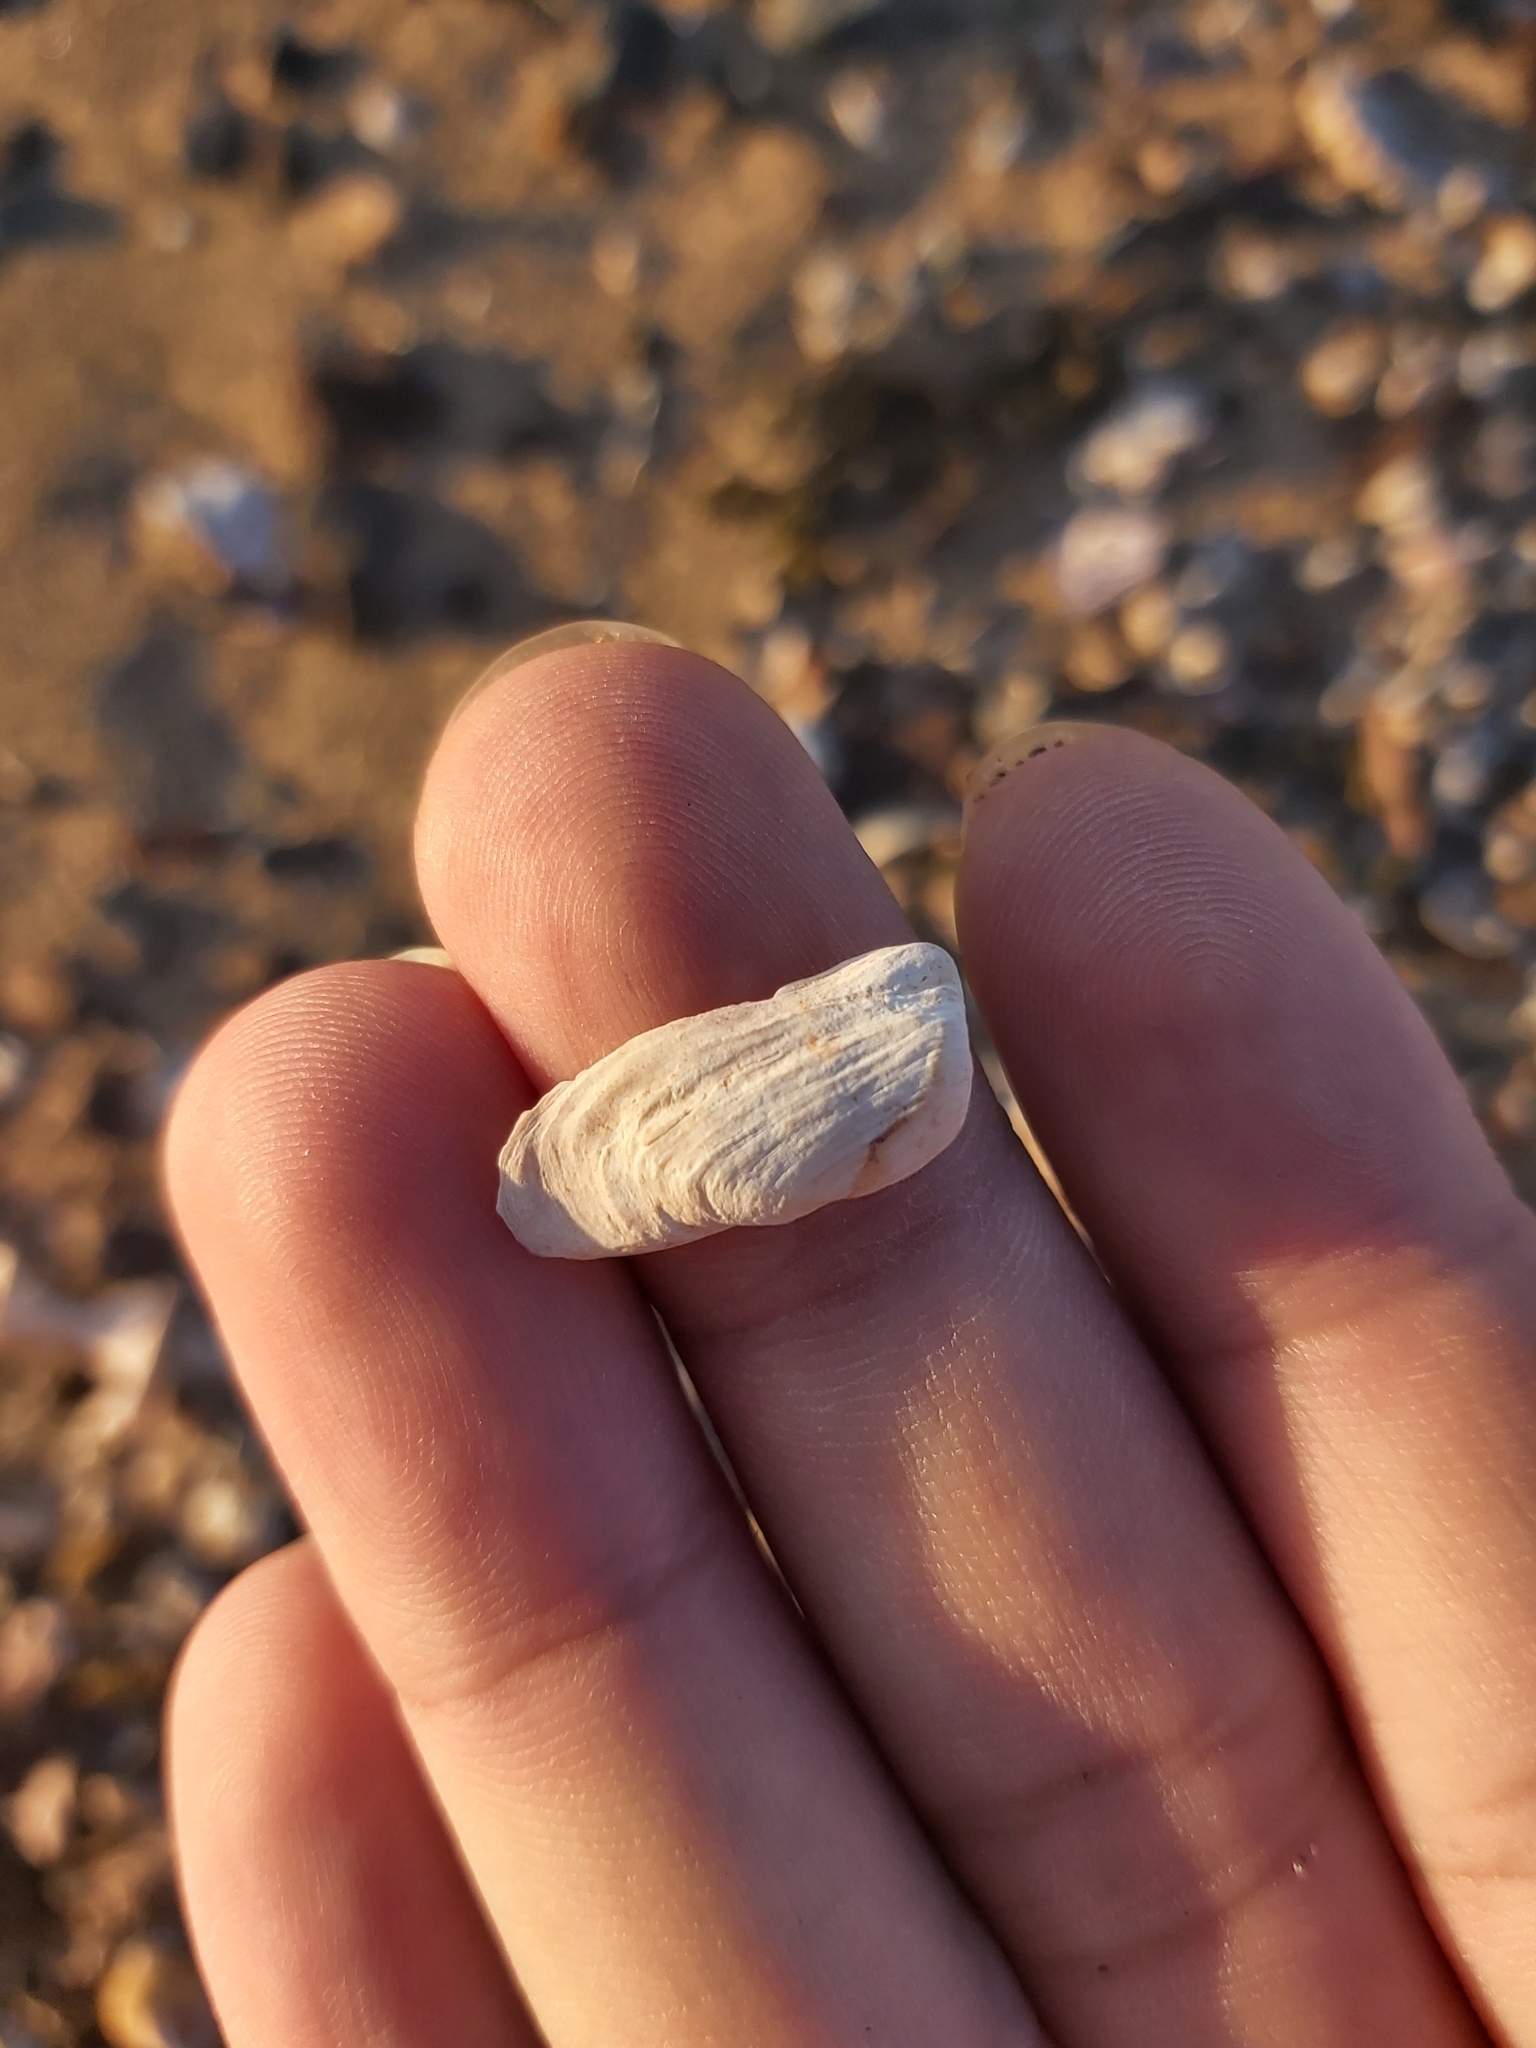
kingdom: Animalia
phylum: Mollusca
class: Bivalvia
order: Adapedonta
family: Hiatellidae
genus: Hiatella
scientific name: Hiatella australis
